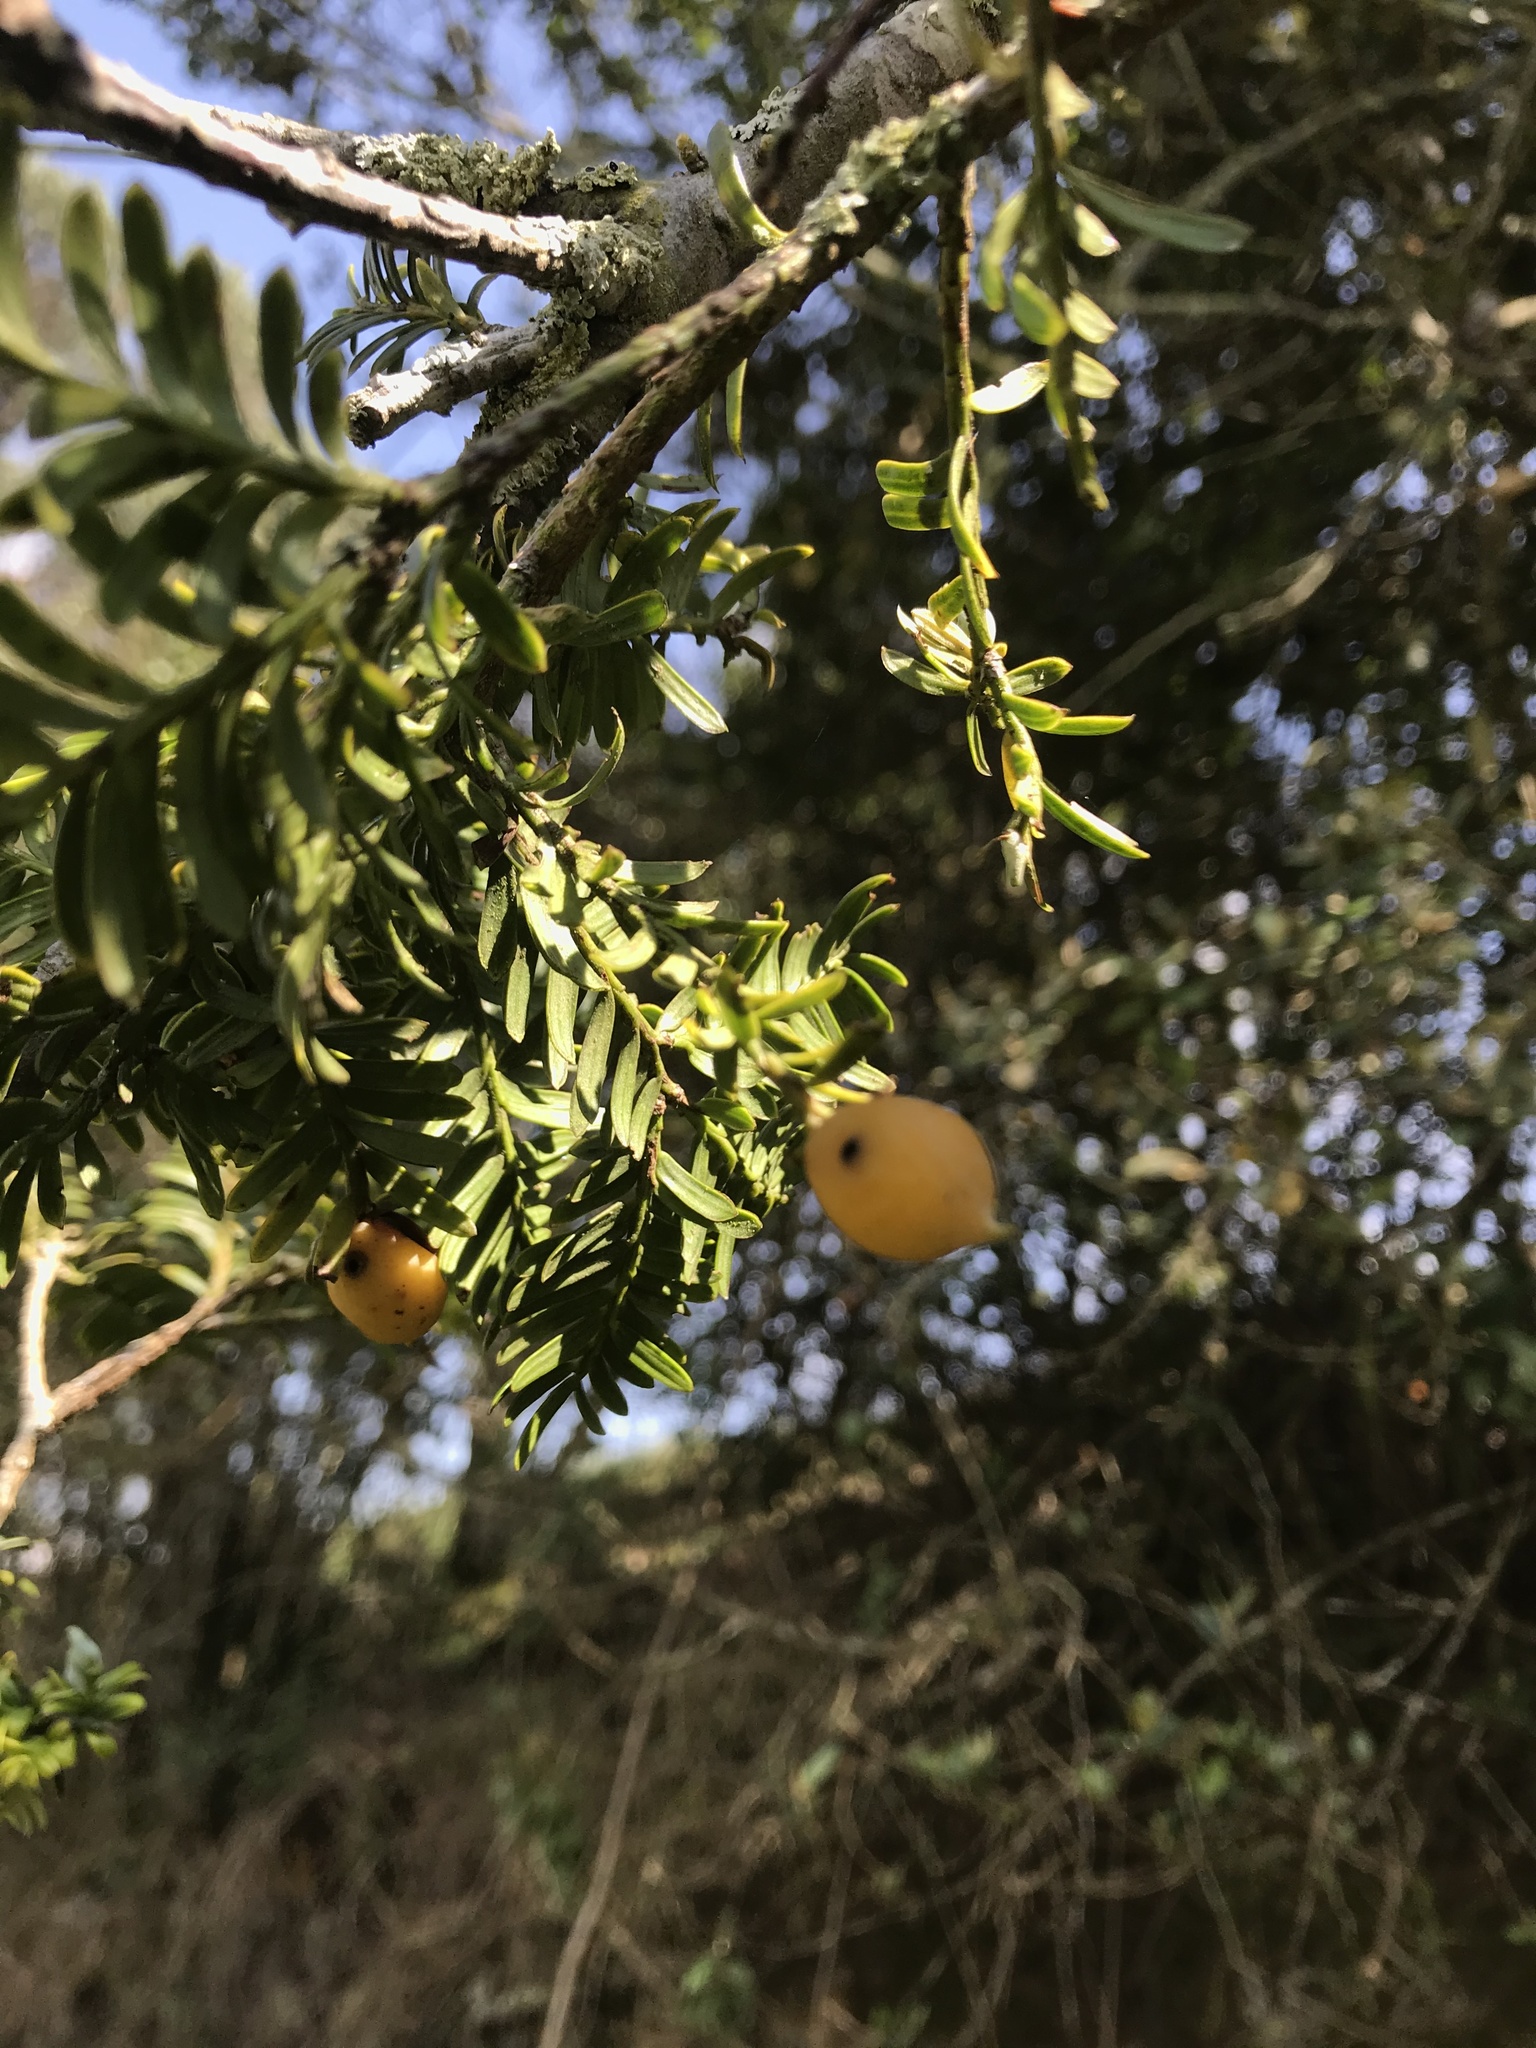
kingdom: Plantae
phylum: Tracheophyta
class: Pinopsida
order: Pinales
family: Podocarpaceae
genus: Prumnopitys
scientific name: Prumnopitys montana
